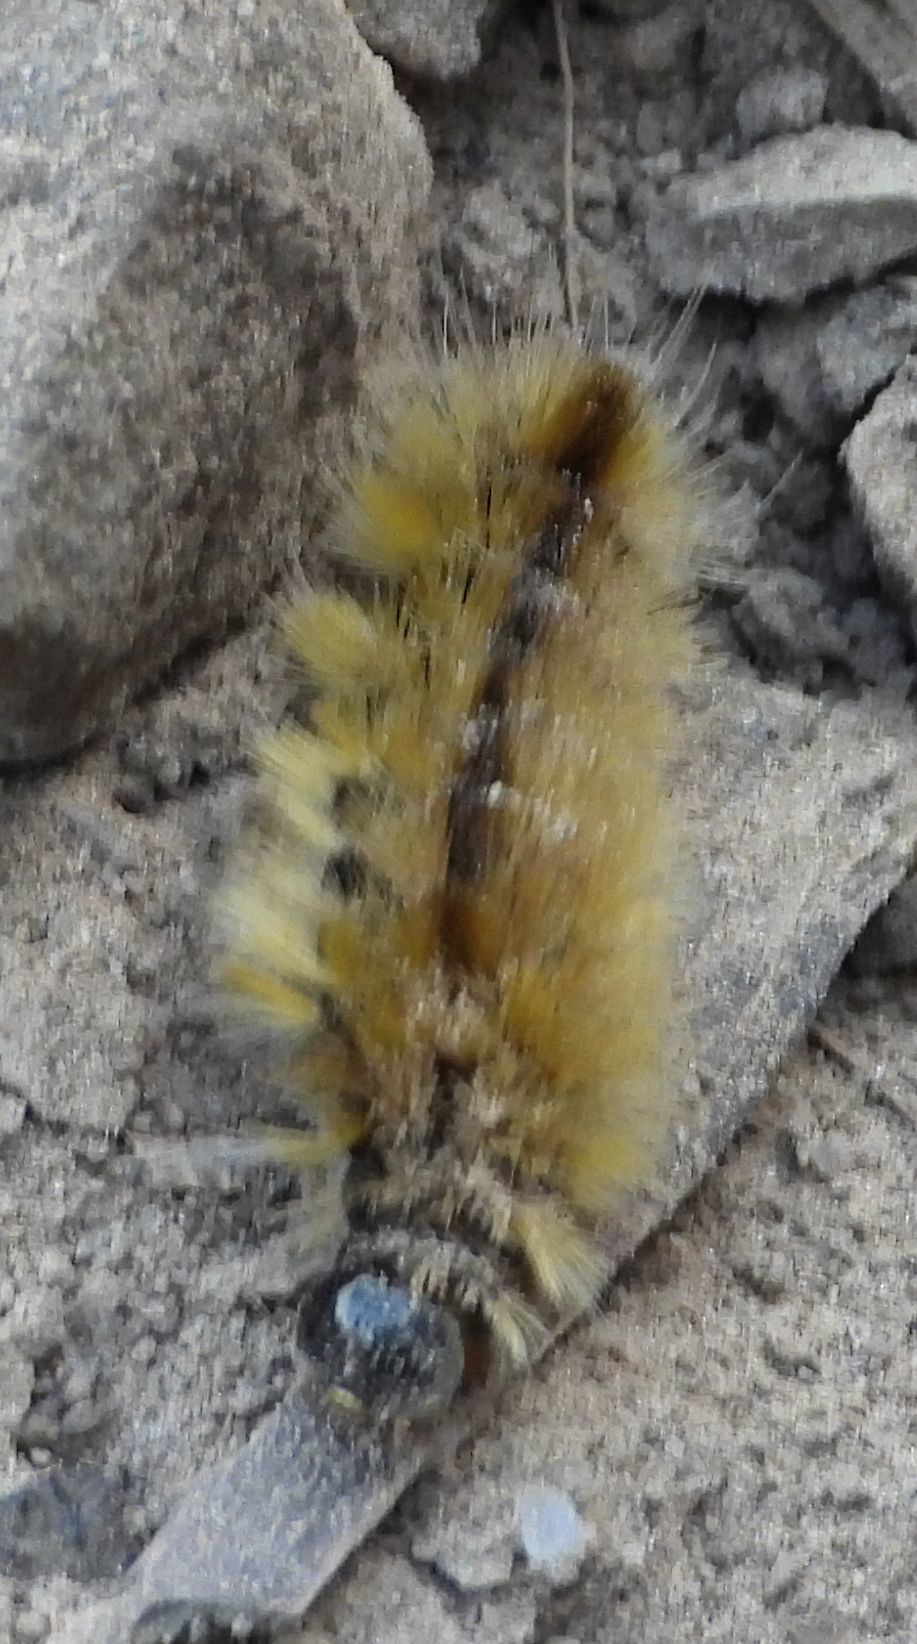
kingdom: Animalia
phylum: Arthropoda
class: Insecta
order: Lepidoptera
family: Erebidae
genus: Halysidota
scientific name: Halysidota tessellaris
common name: Banded tussock moth
